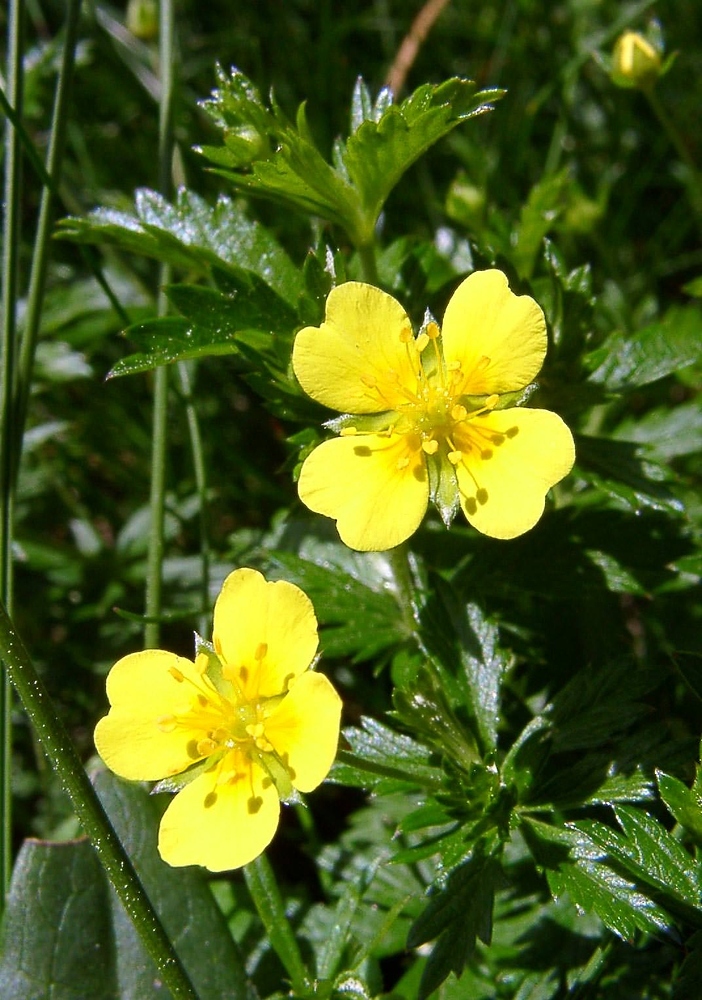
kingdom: Plantae
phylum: Tracheophyta
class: Magnoliopsida
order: Rosales
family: Rosaceae
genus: Potentilla
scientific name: Potentilla erecta
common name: Tormentil
